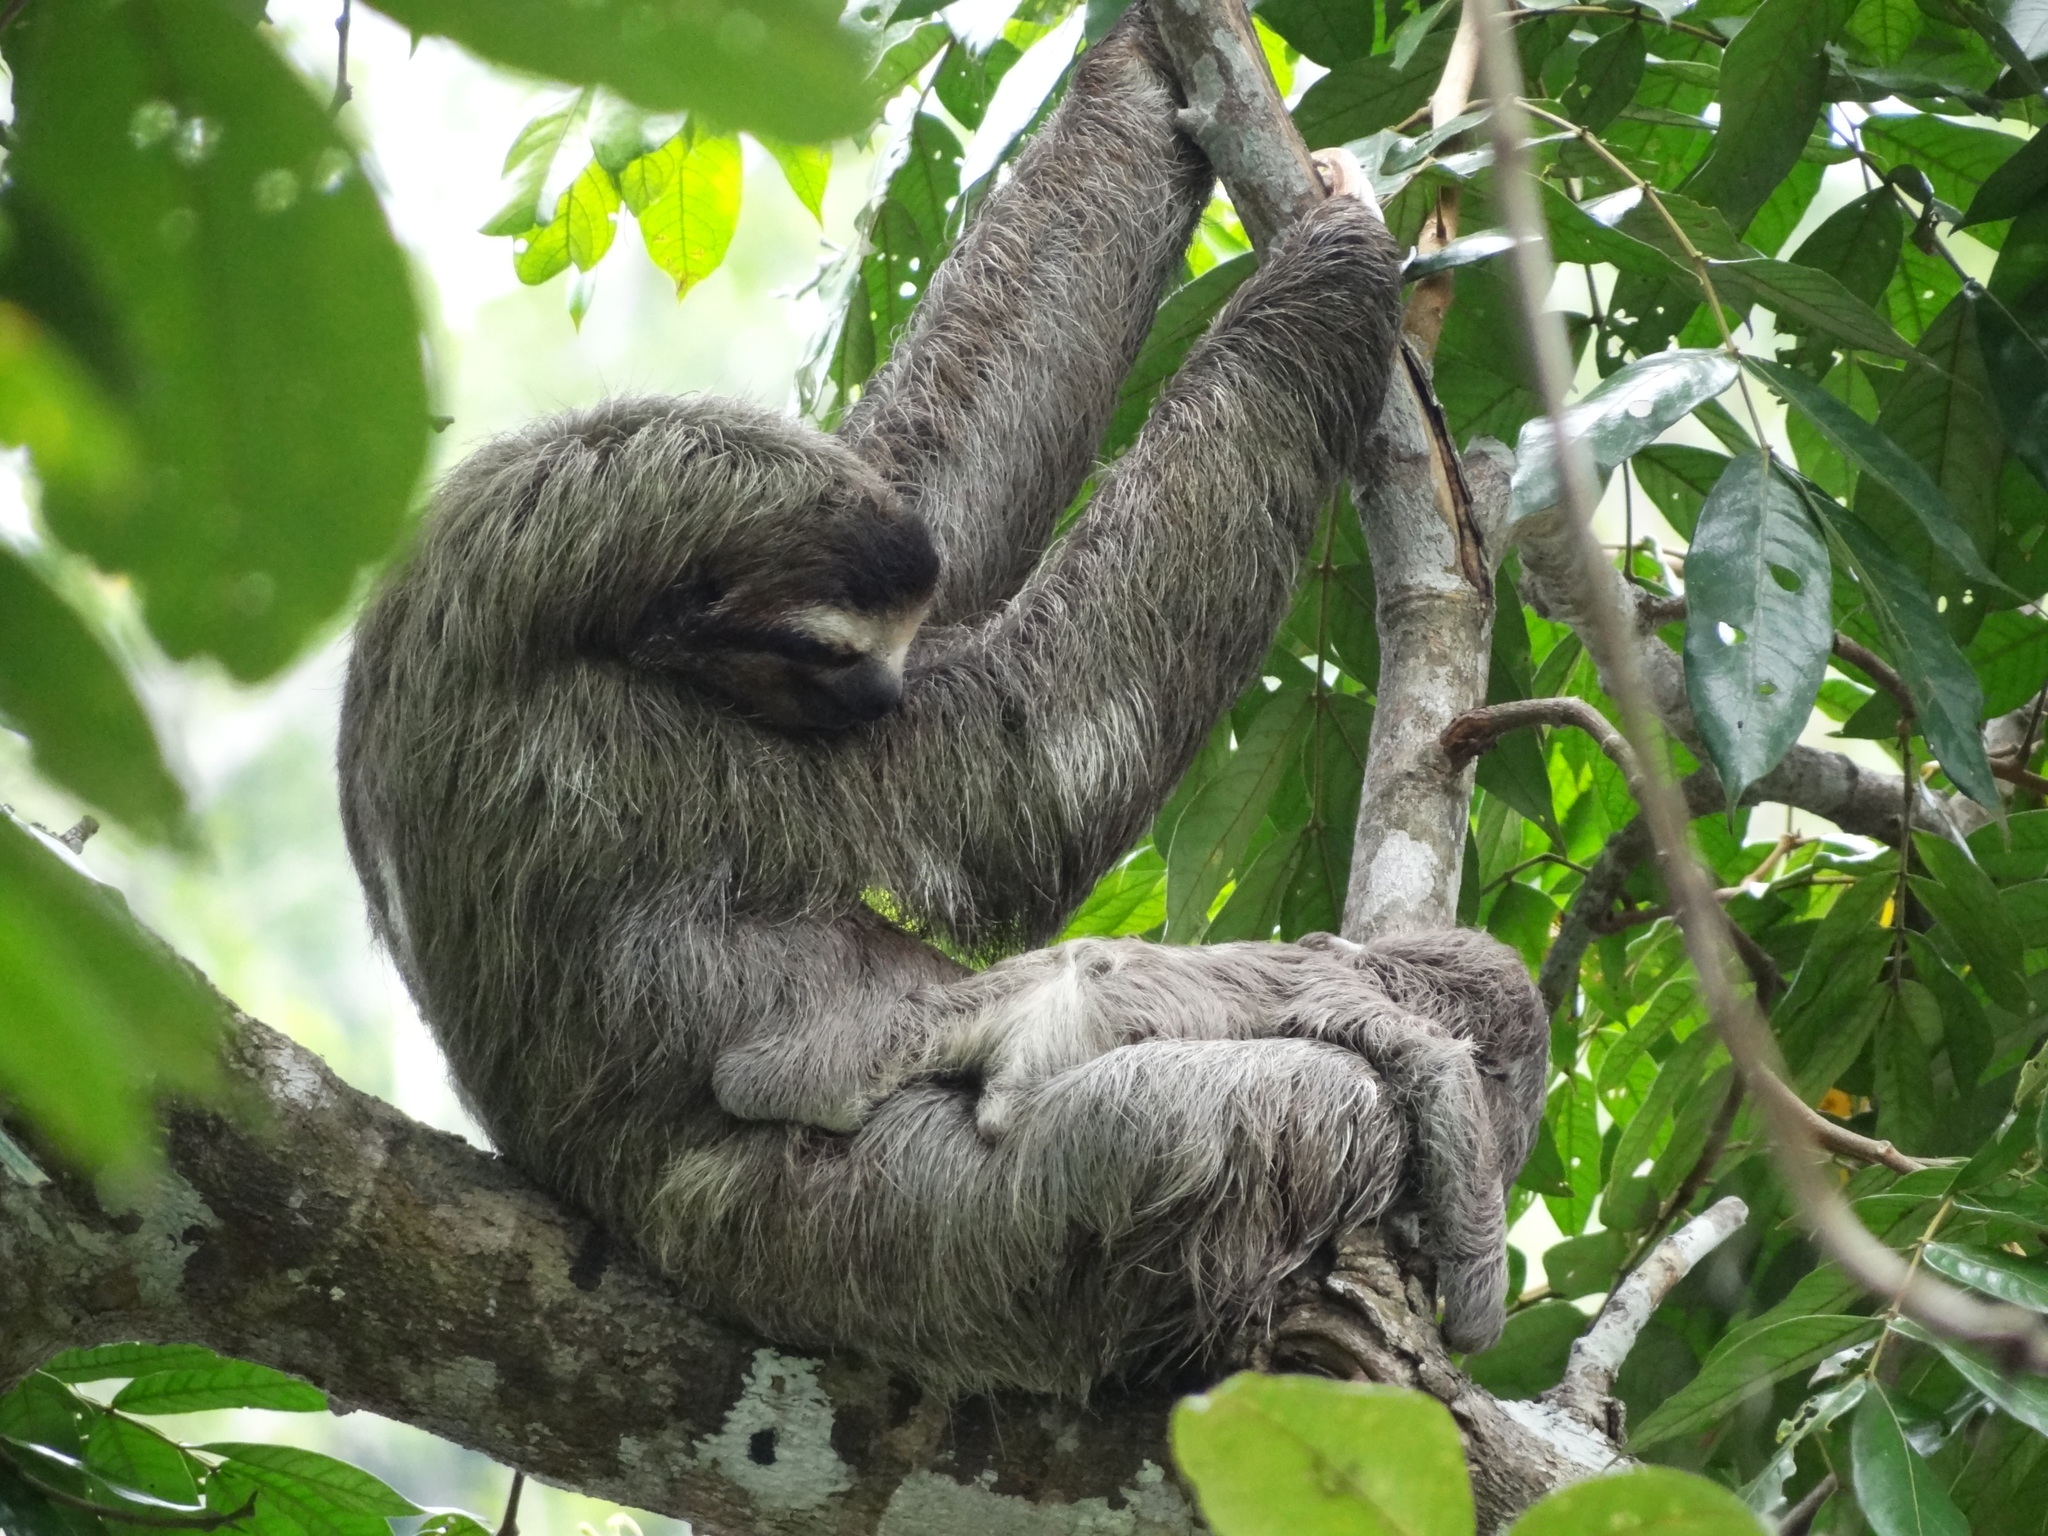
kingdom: Animalia
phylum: Chordata
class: Mammalia
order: Pilosa
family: Bradypodidae
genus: Bradypus
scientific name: Bradypus variegatus
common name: Brown-throated three-toed sloth
